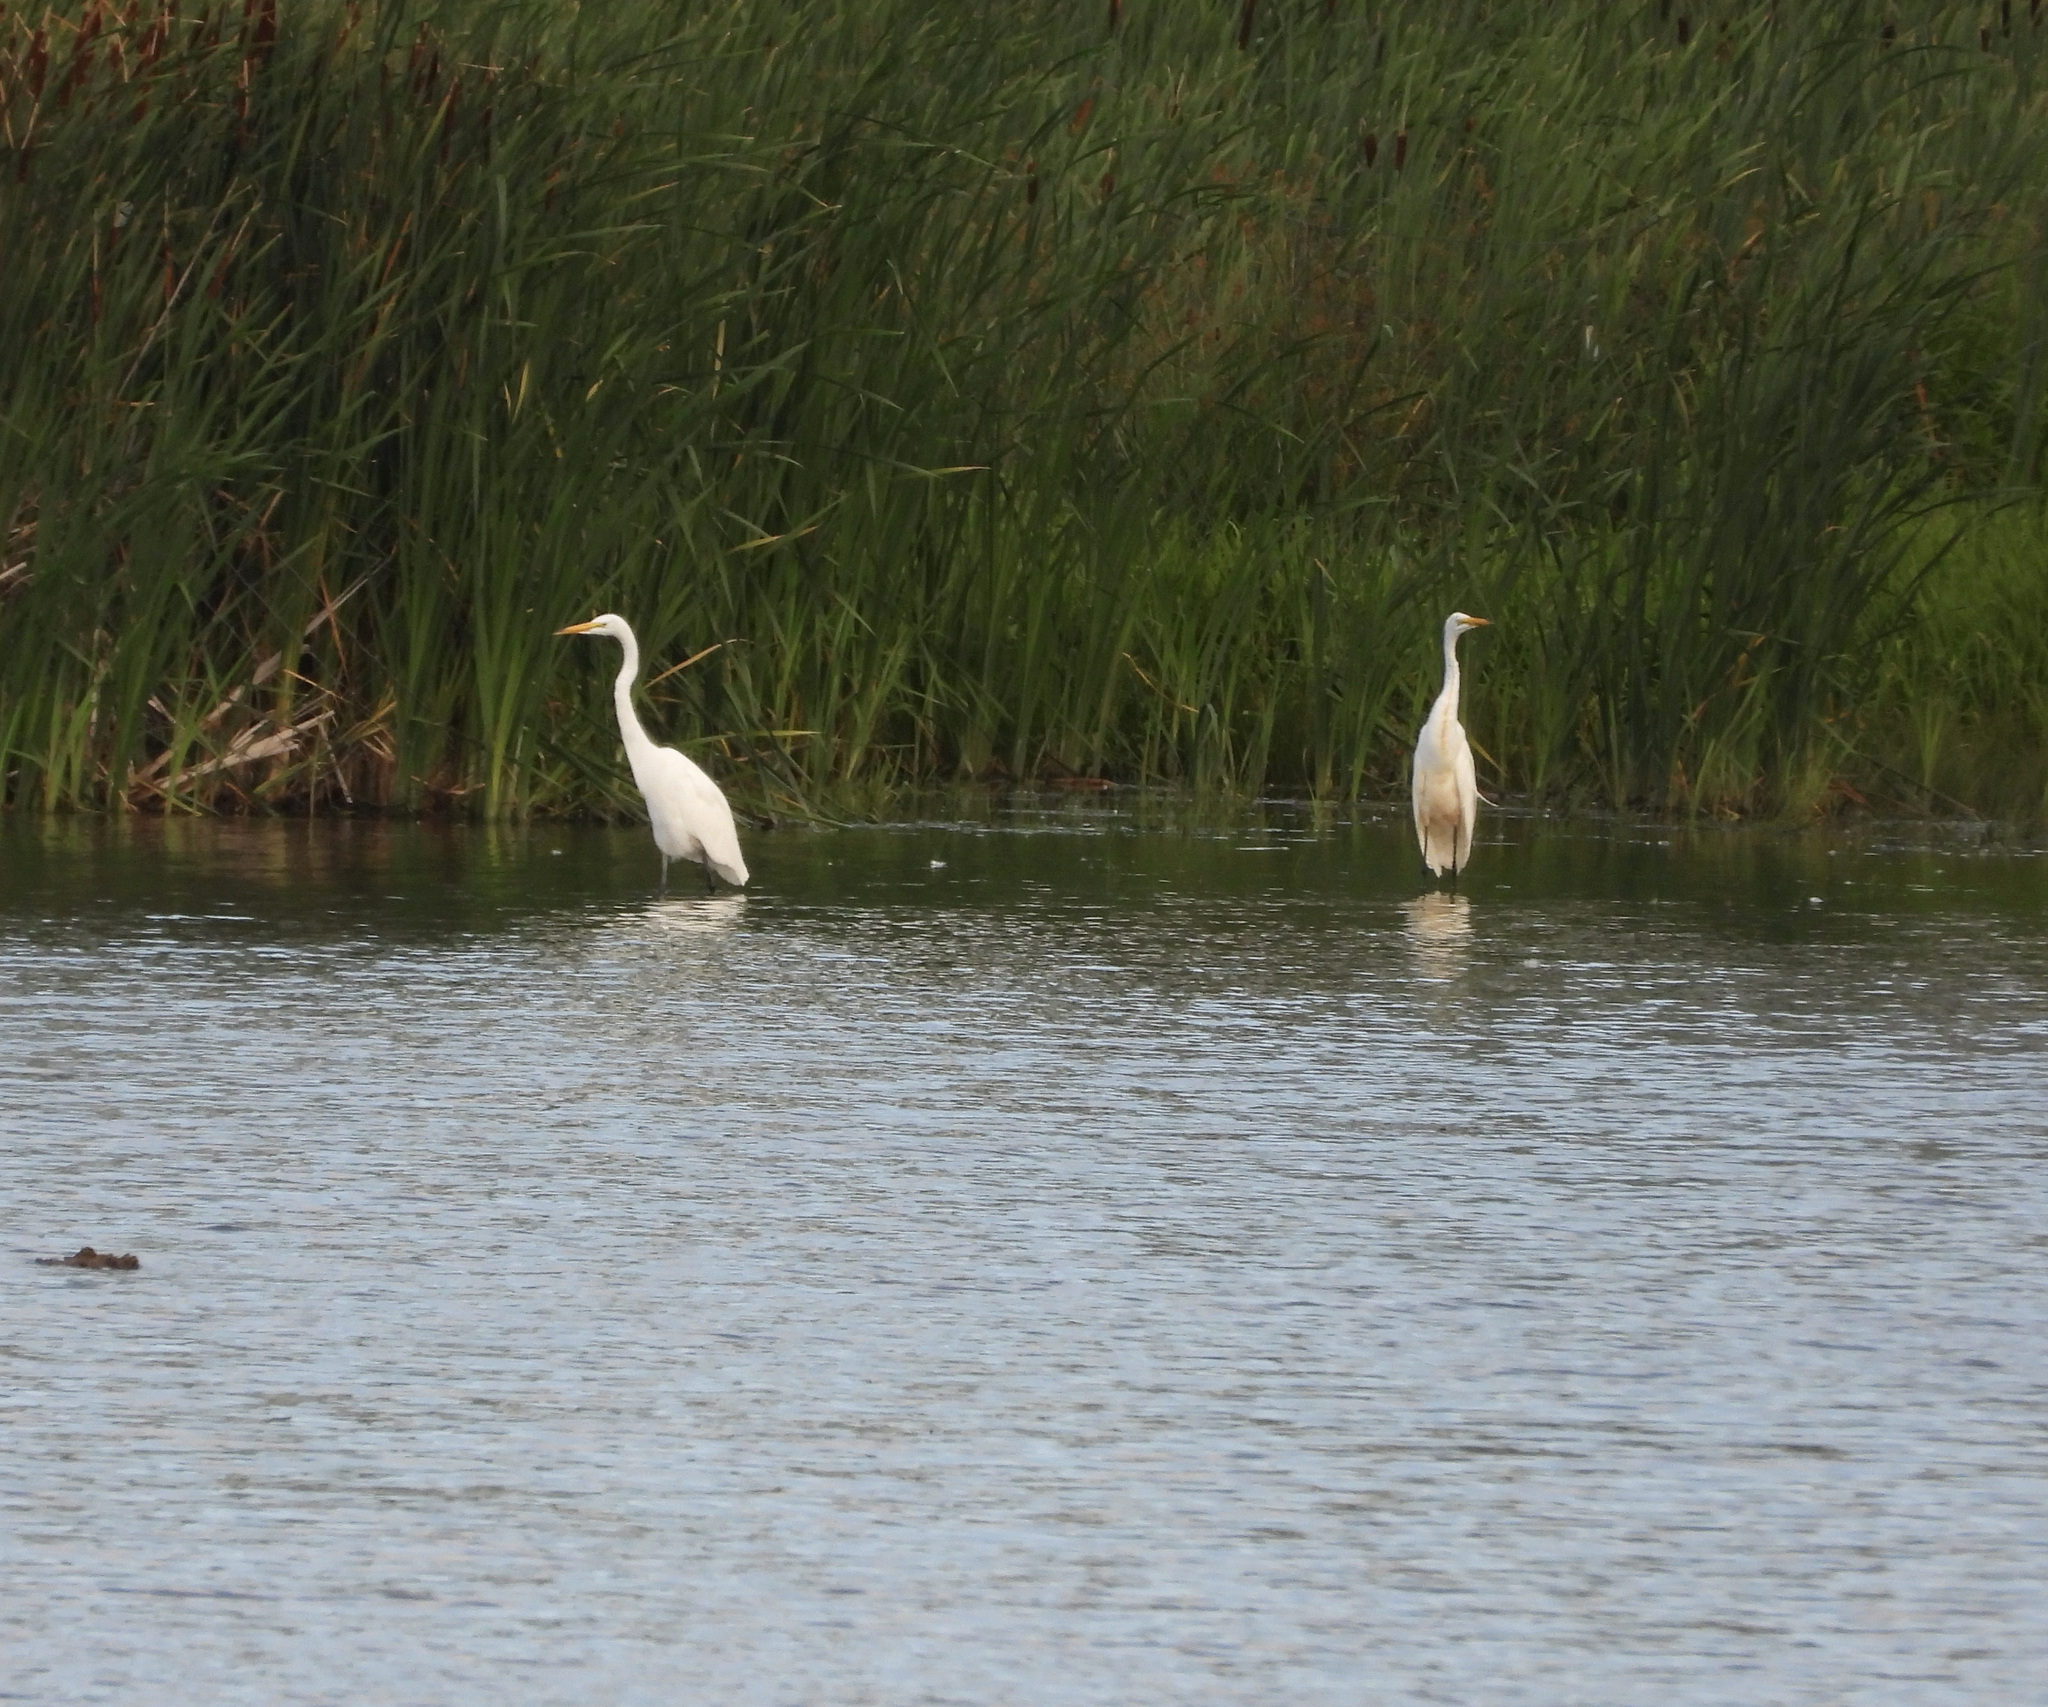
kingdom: Animalia
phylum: Chordata
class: Aves
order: Pelecaniformes
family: Ardeidae
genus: Ardea
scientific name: Ardea alba
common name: Great egret
